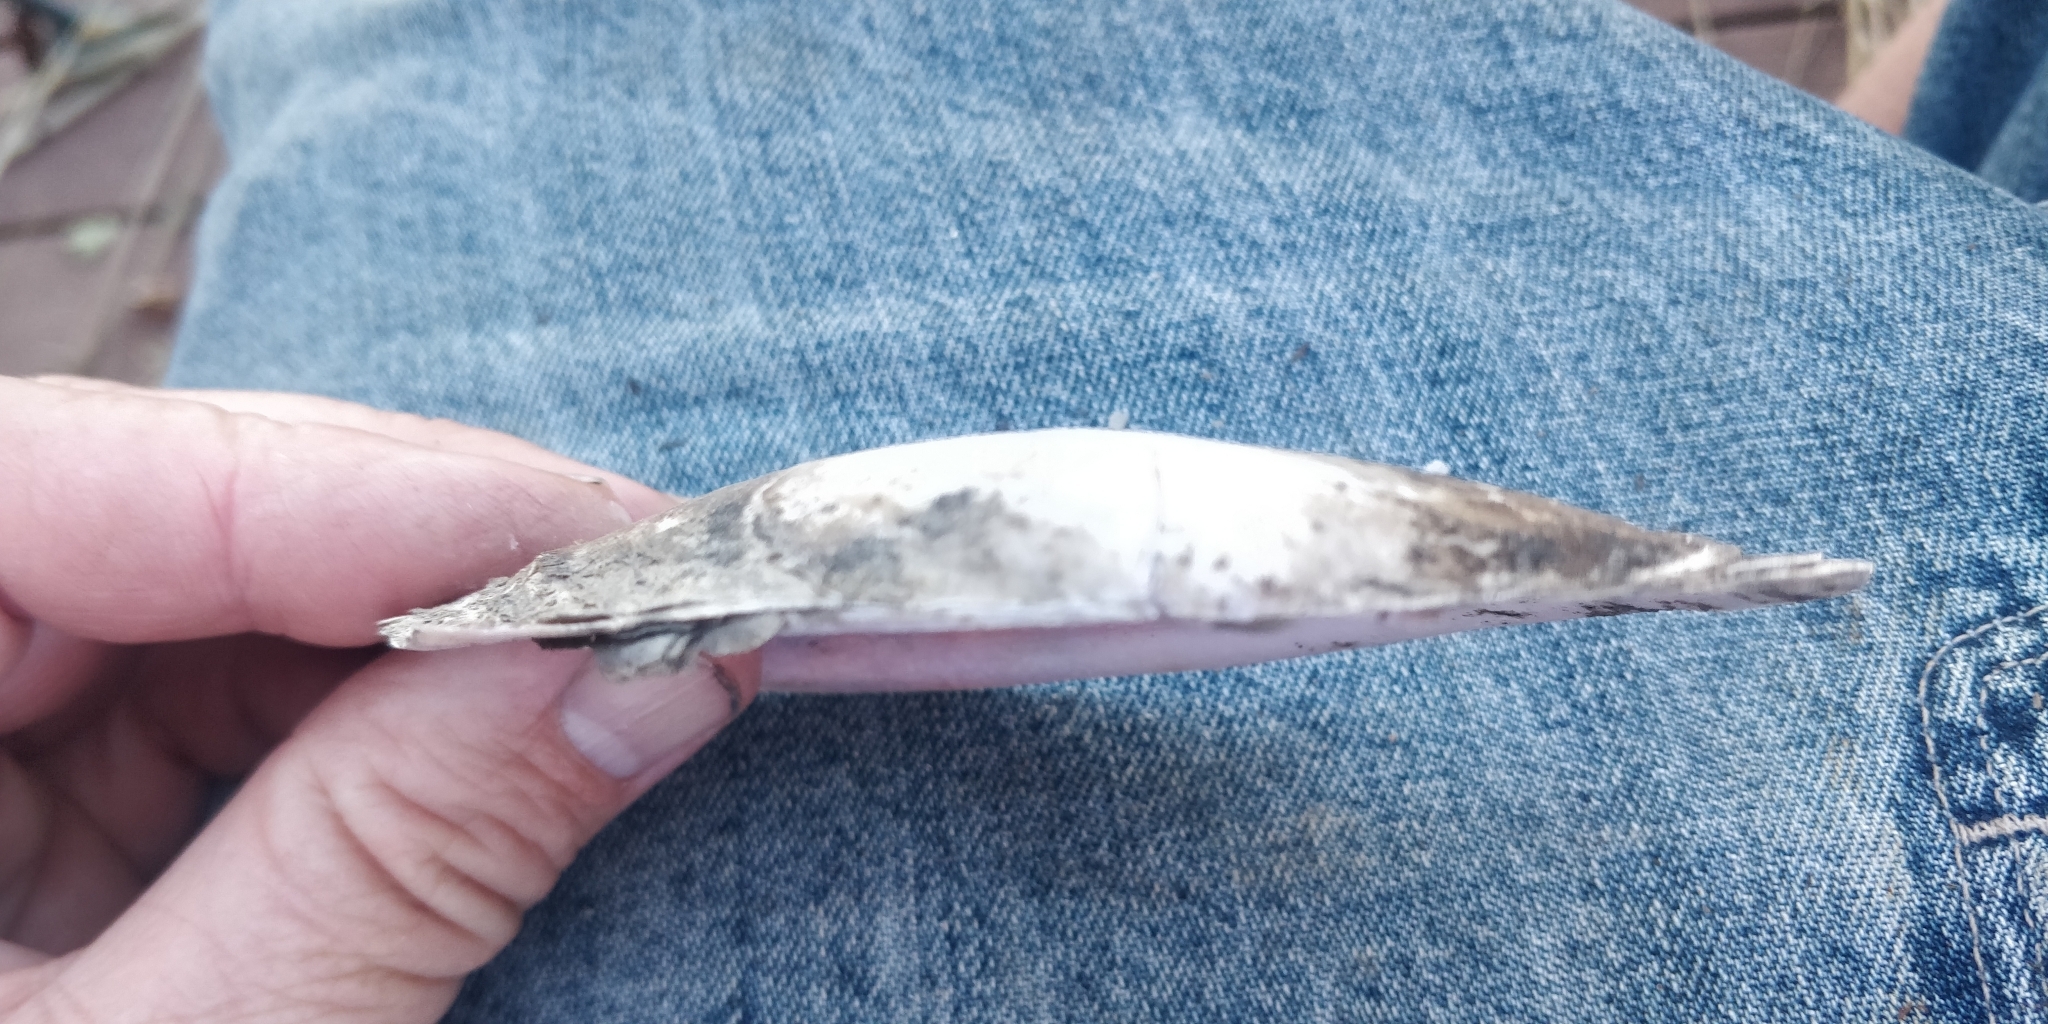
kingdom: Animalia
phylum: Mollusca
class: Bivalvia
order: Unionida
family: Unionidae
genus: Potamilus
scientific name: Potamilus ohiensis
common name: Pink papershell
